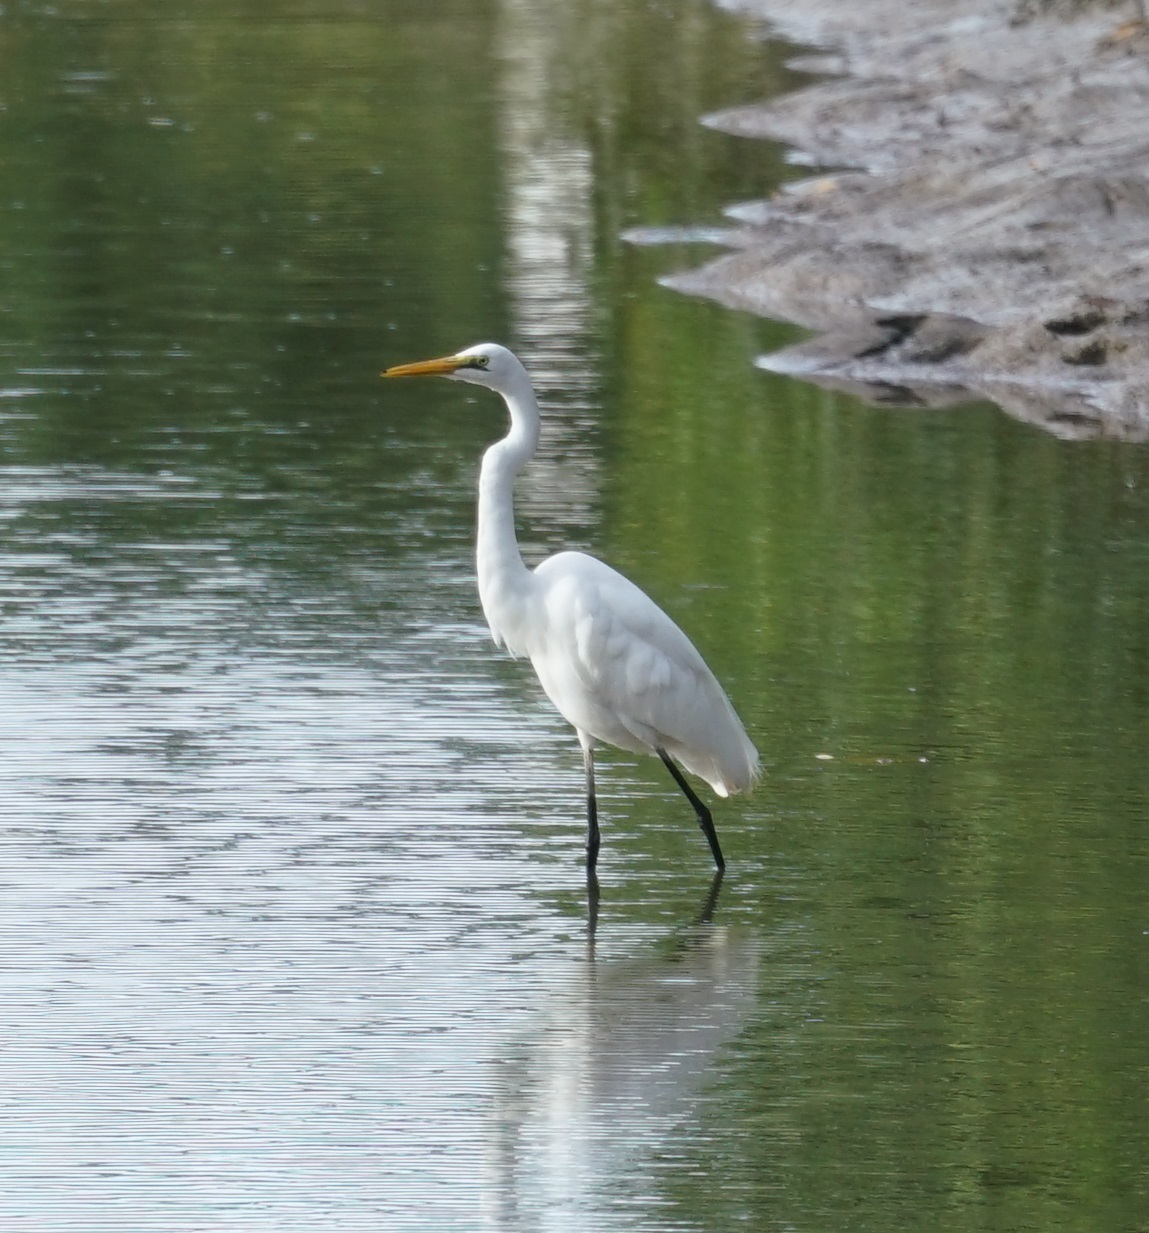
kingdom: Animalia
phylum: Chordata
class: Aves
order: Pelecaniformes
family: Ardeidae
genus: Ardea
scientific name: Ardea modesta
